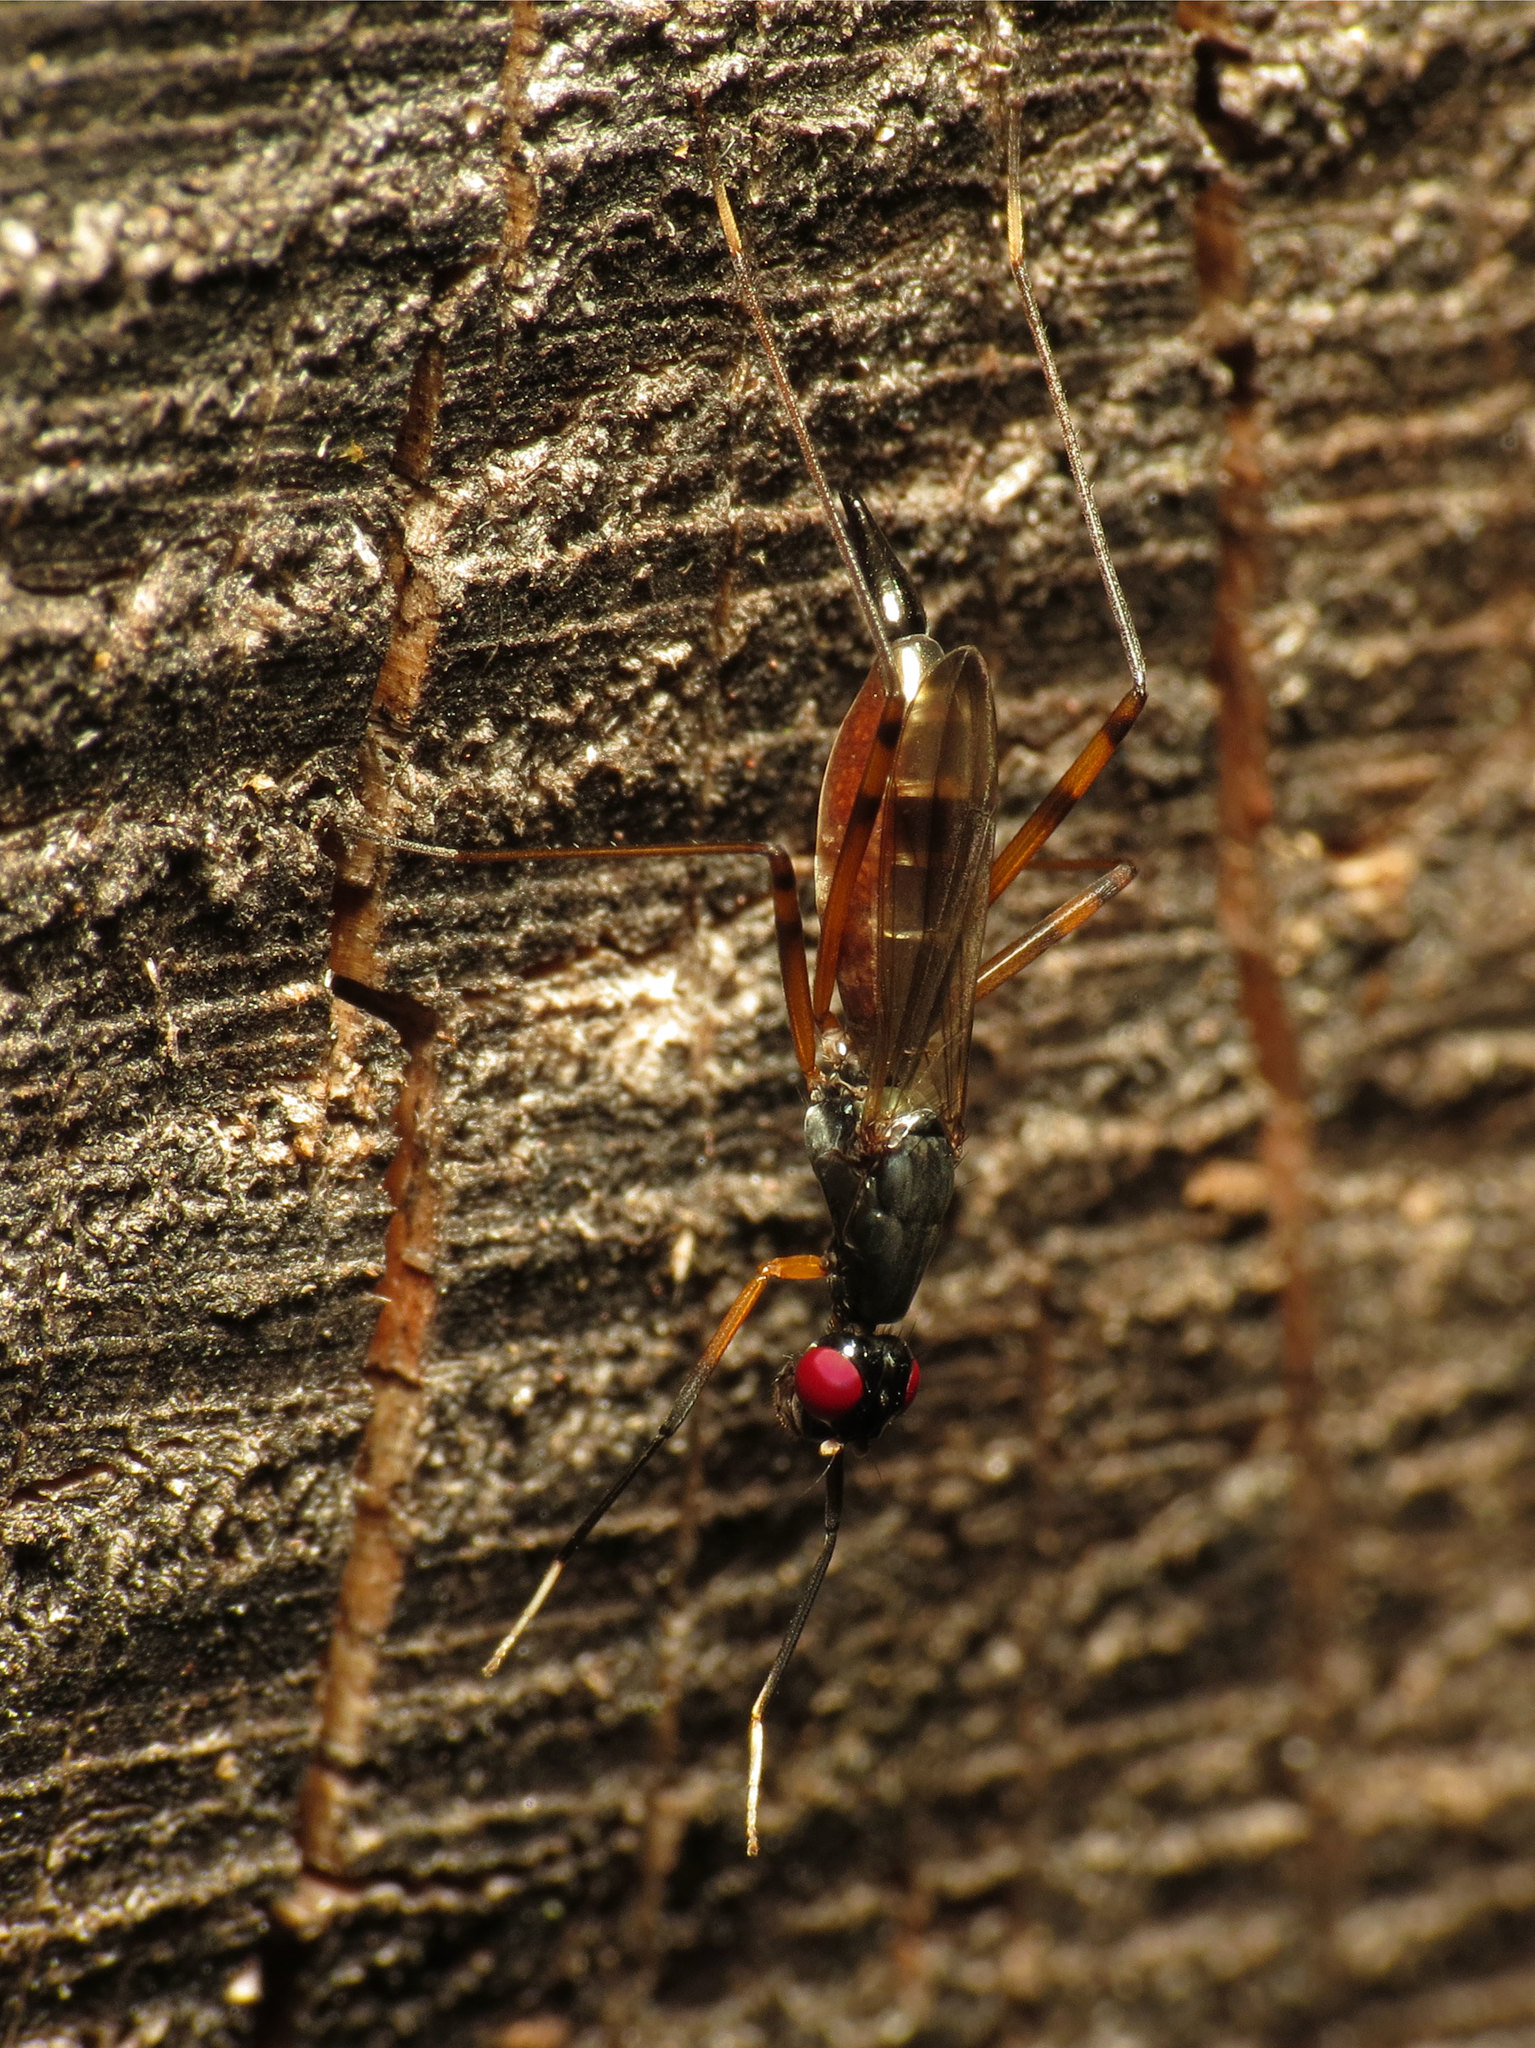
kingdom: Animalia
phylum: Arthropoda
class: Insecta
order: Diptera
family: Micropezidae
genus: Rainieria
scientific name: Rainieria antennaepes
